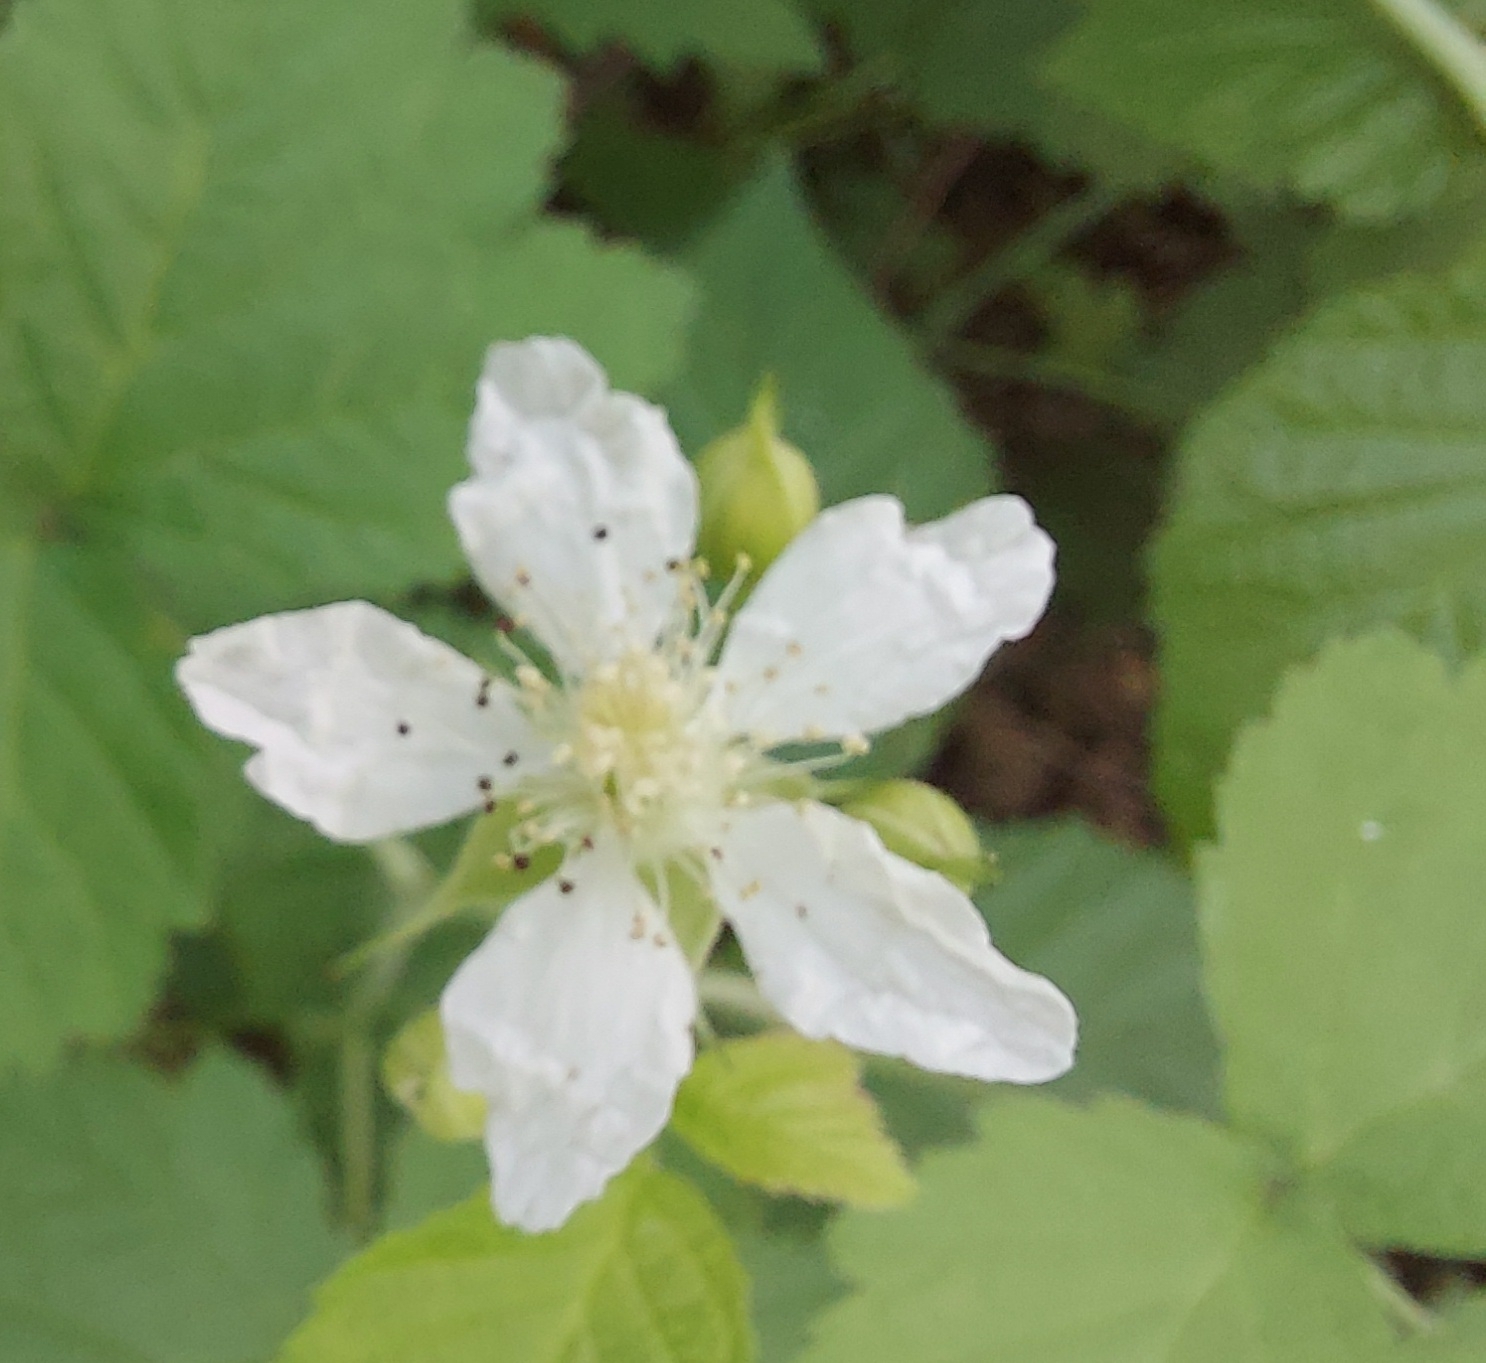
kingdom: Plantae
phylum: Tracheophyta
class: Magnoliopsida
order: Rosales
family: Rosaceae
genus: Rubus
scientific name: Rubus caesius
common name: Dewberry
